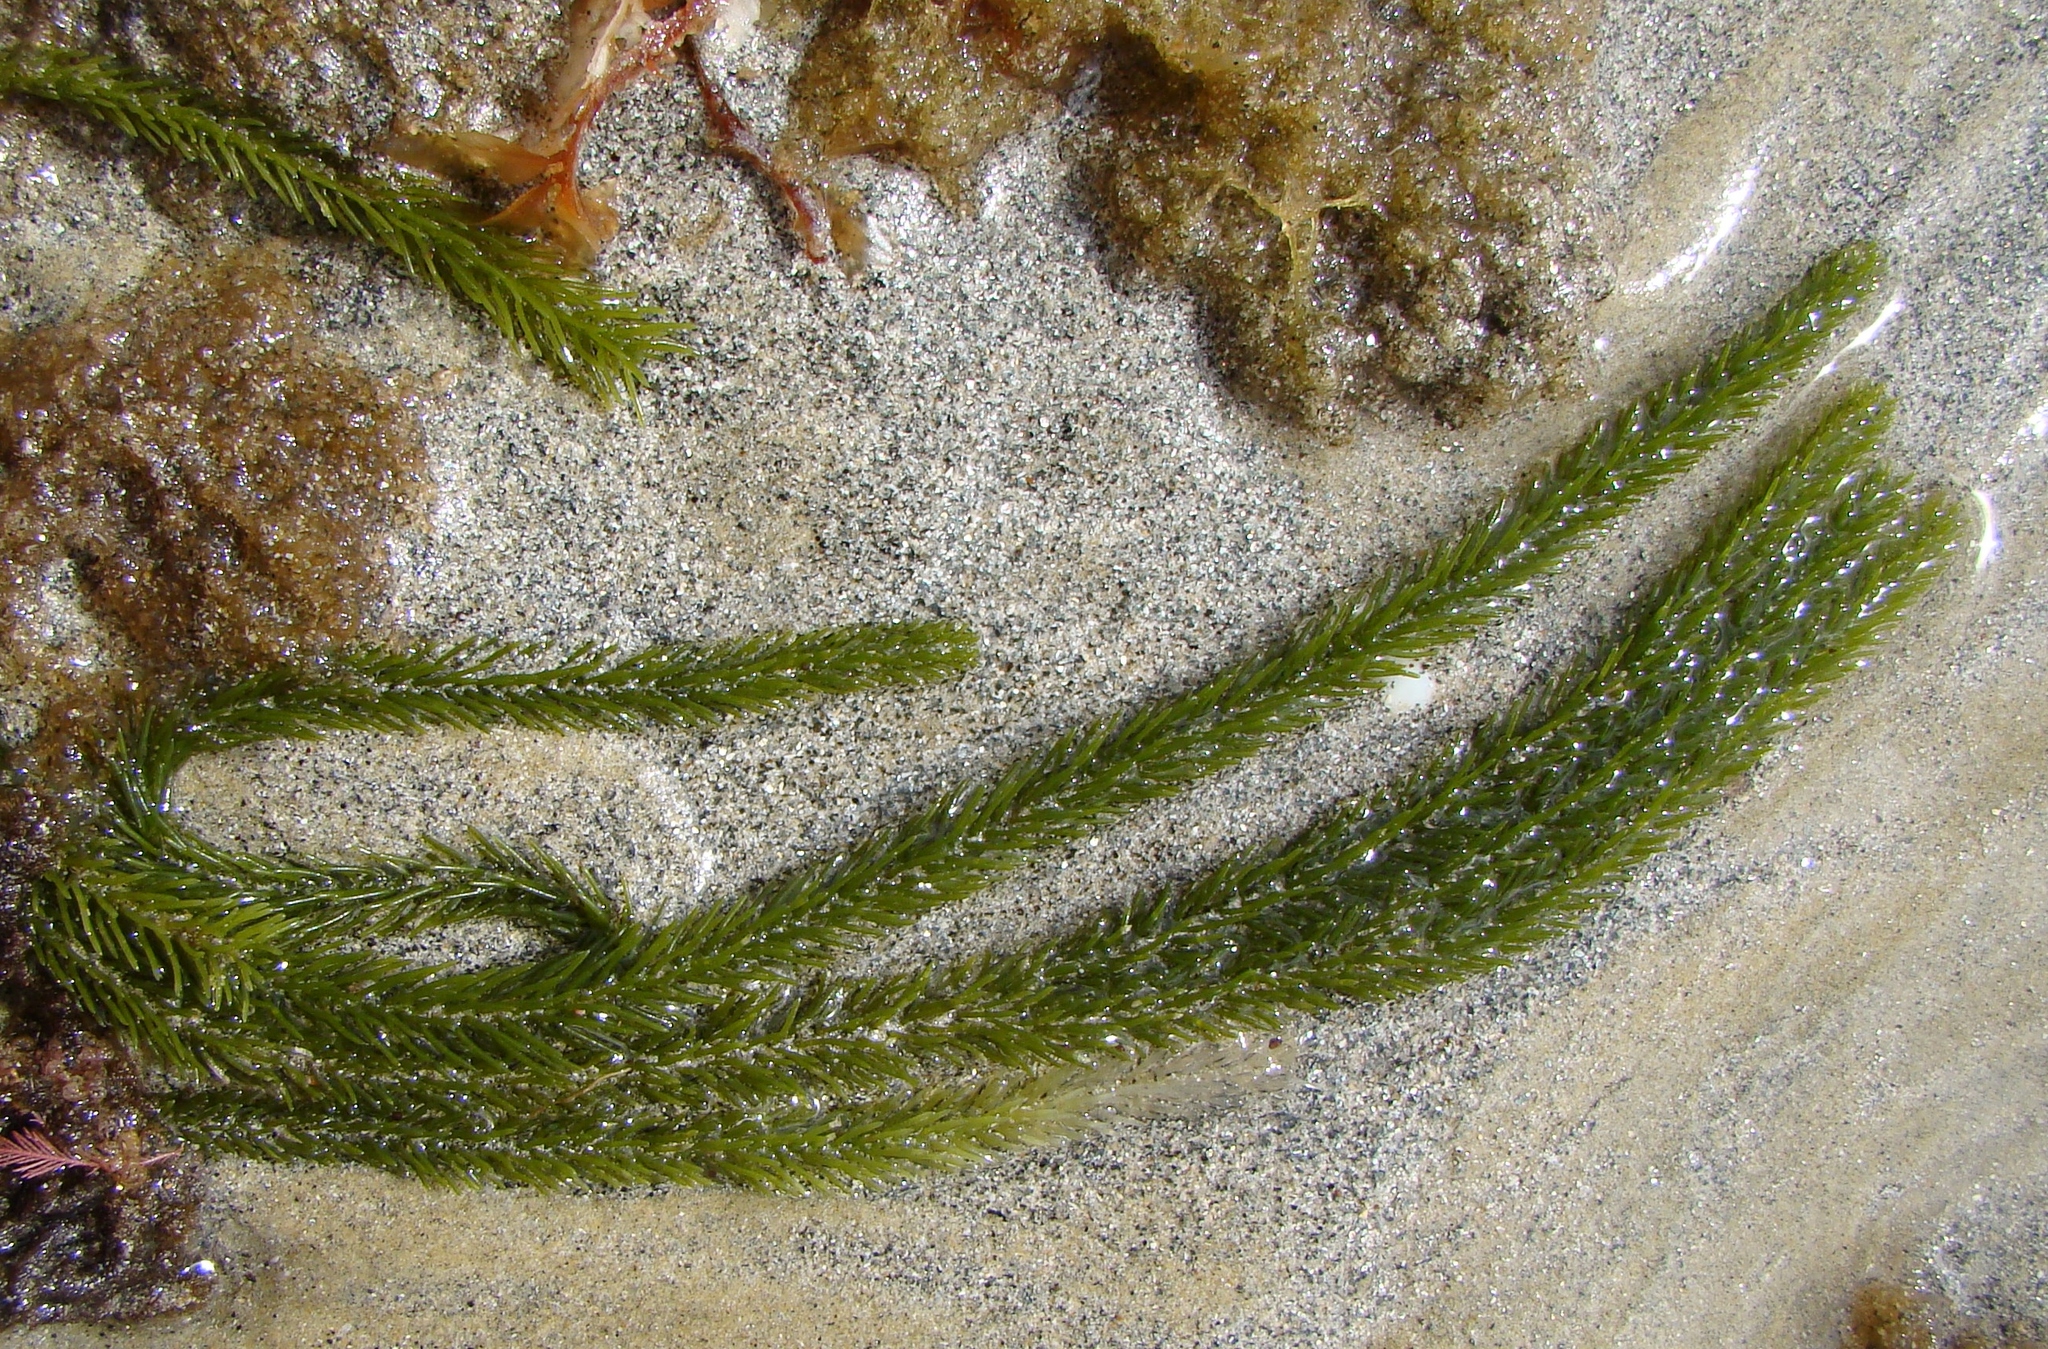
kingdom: Plantae
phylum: Chlorophyta
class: Ulvophyceae
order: Bryopsidales
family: Caulerpaceae
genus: Caulerpa
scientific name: Caulerpa brownii
